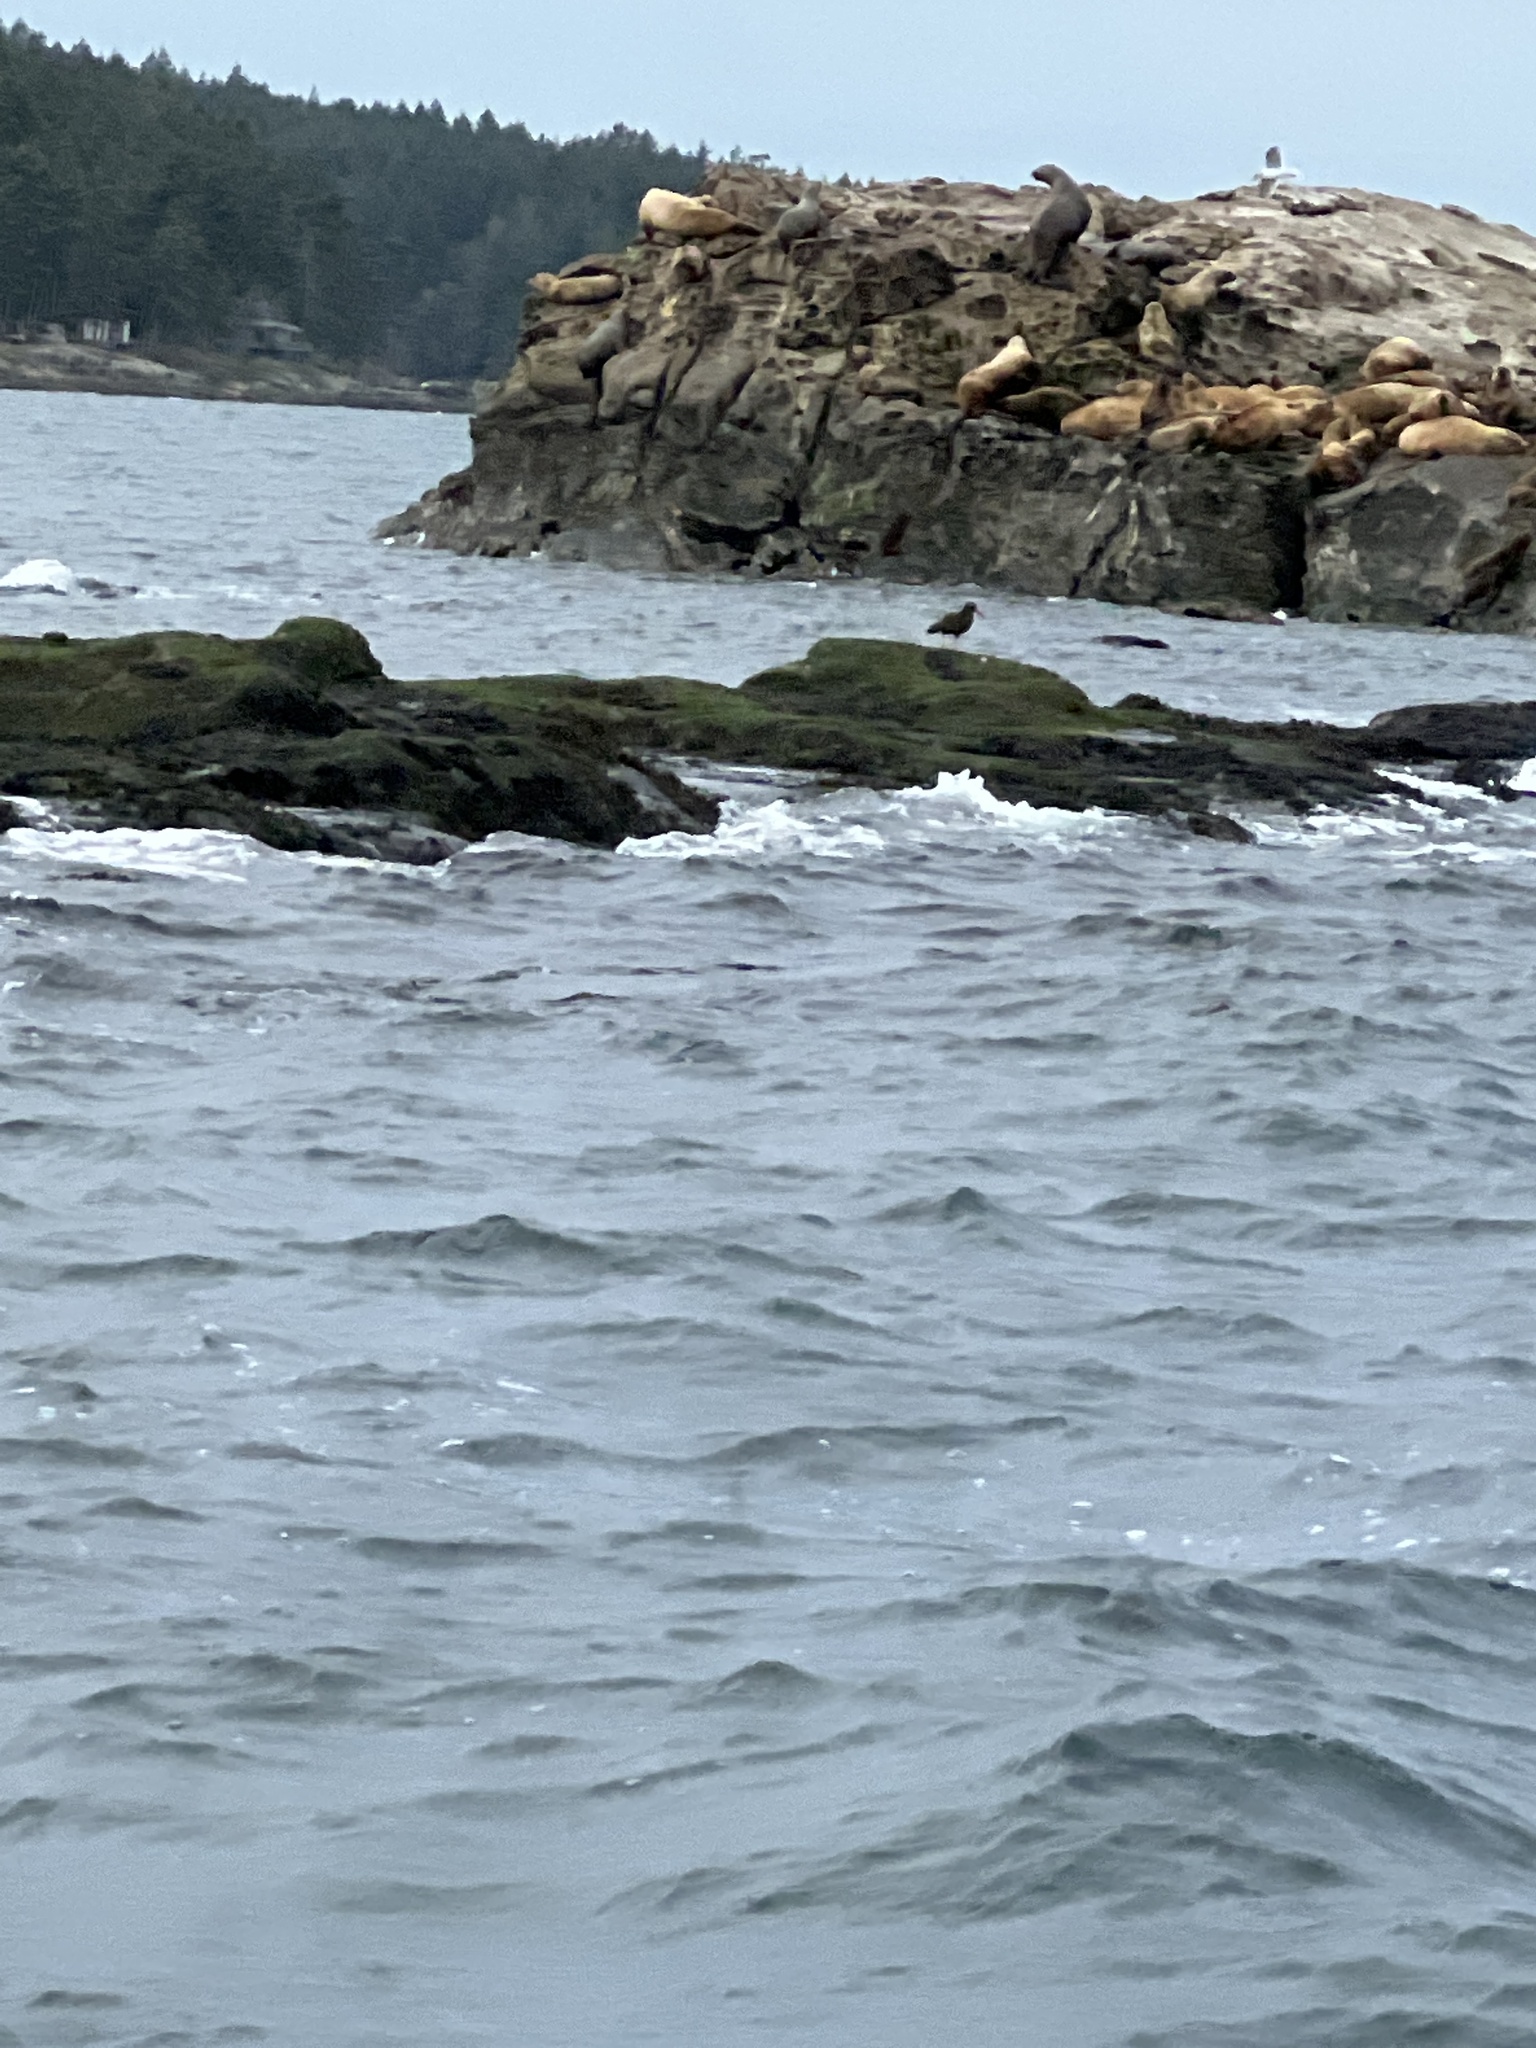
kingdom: Animalia
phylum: Chordata
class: Aves
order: Charadriiformes
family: Haematopodidae
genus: Haematopus
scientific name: Haematopus bachmani
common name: Black oystercatcher
